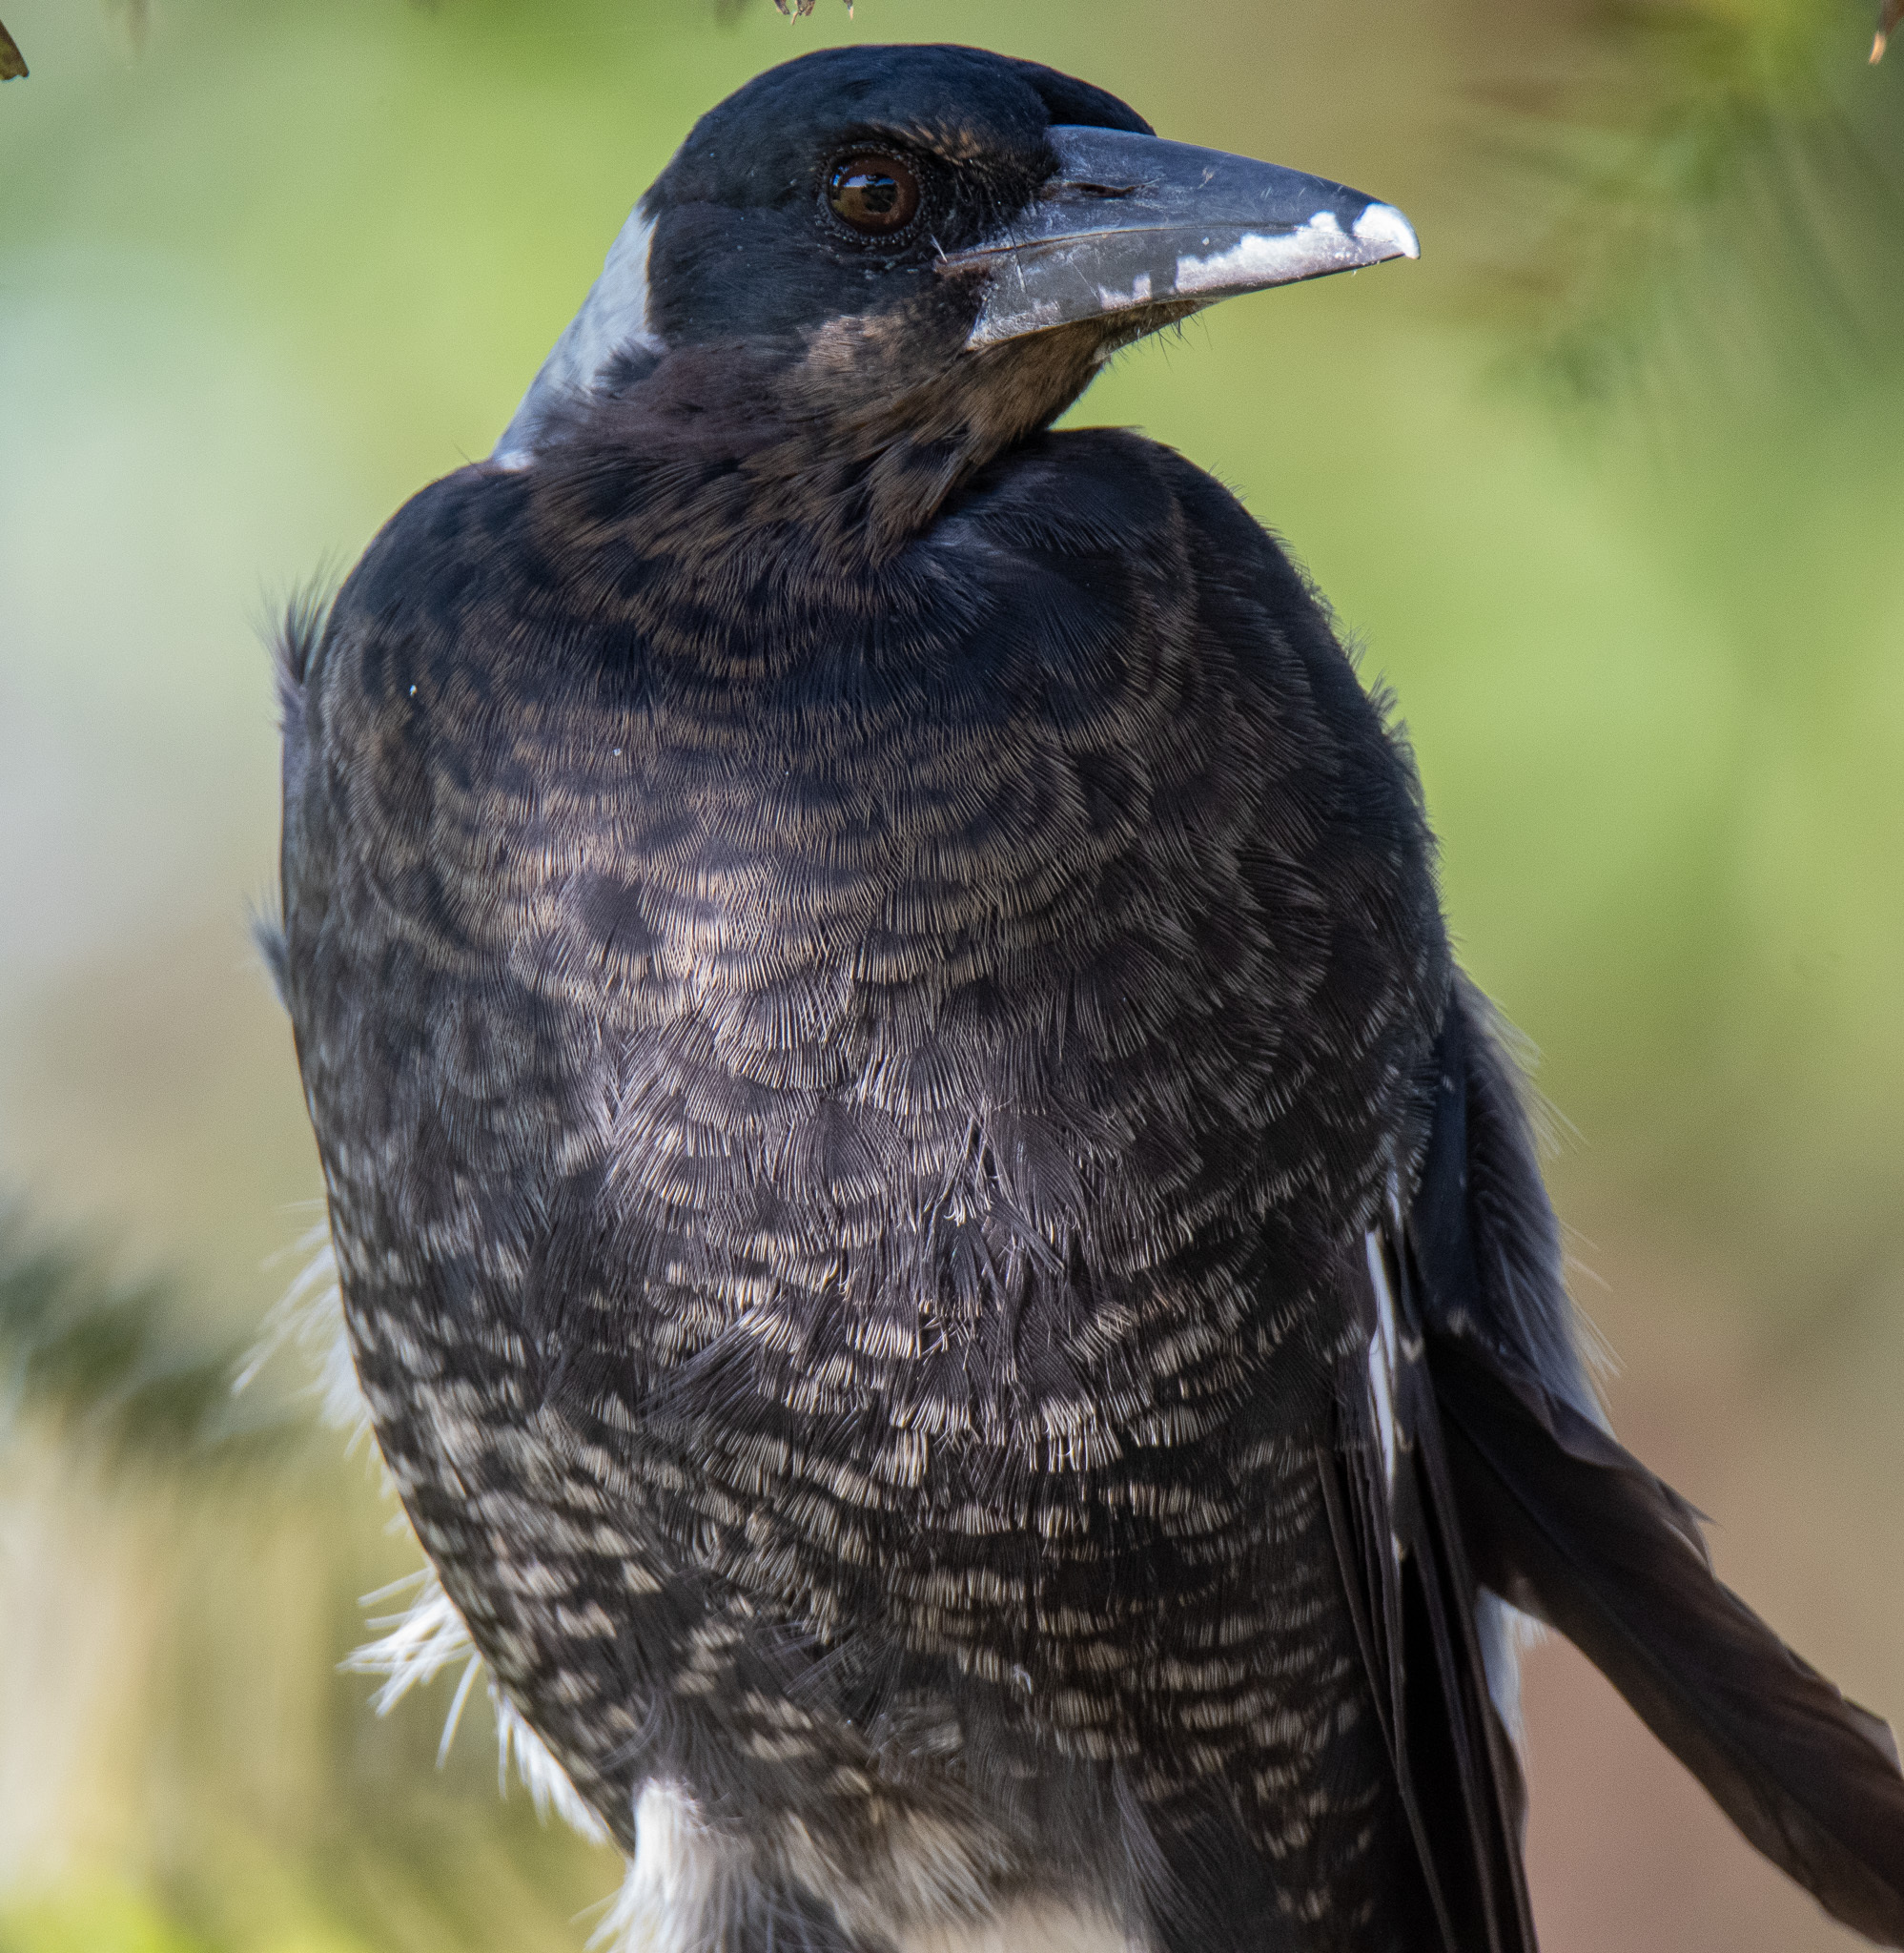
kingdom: Animalia
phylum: Chordata
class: Aves
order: Passeriformes
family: Cracticidae
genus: Gymnorhina
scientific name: Gymnorhina tibicen
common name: Australian magpie
